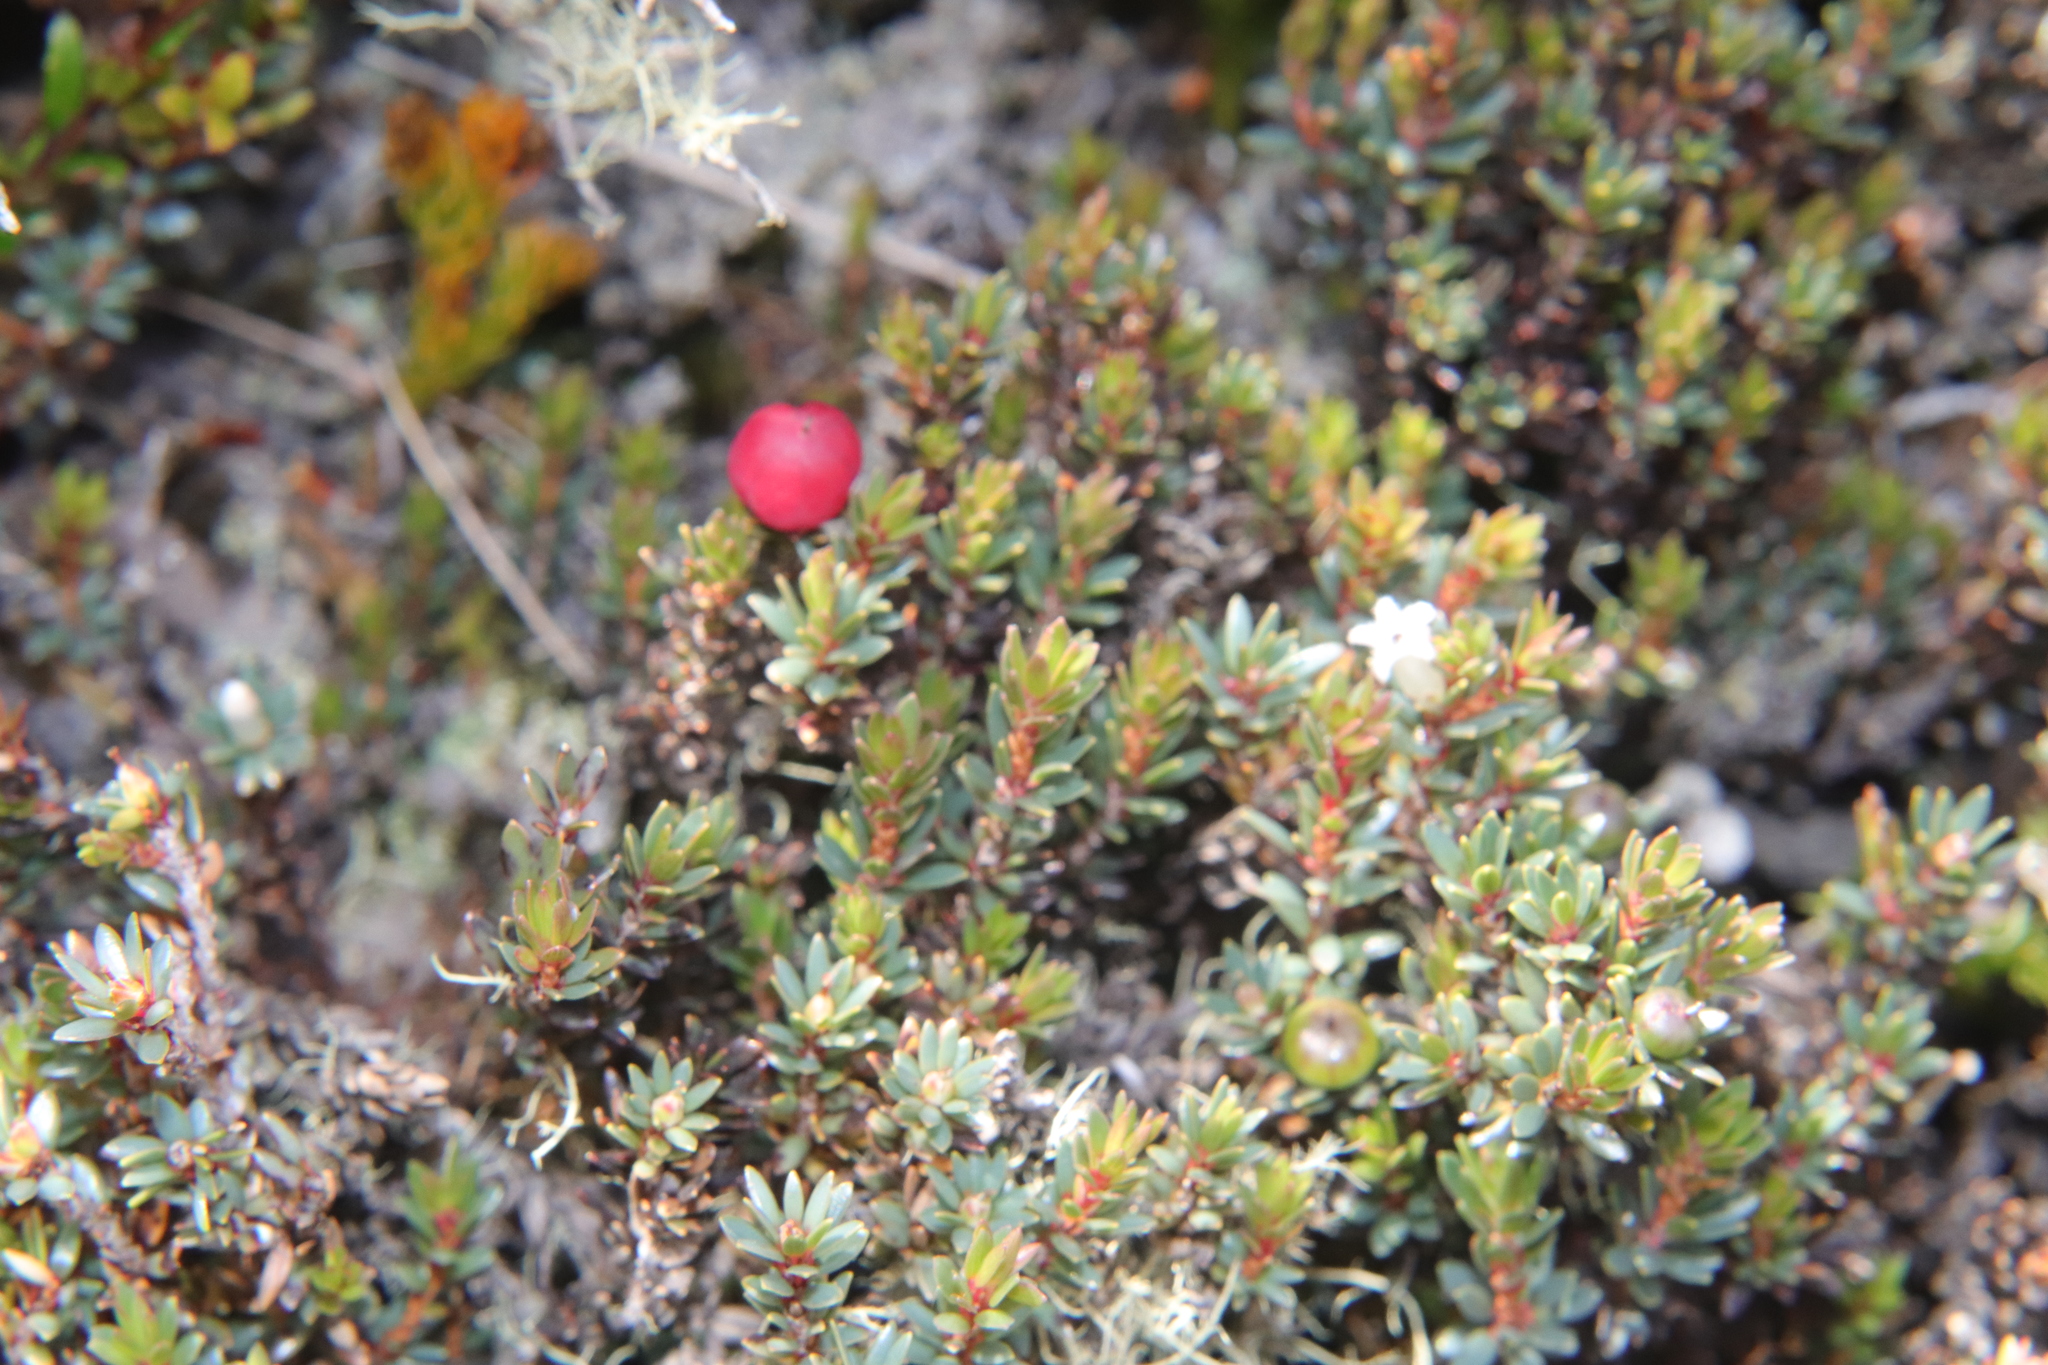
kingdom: Plantae
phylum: Tracheophyta
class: Magnoliopsida
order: Ericales
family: Ericaceae
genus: Pentachondra
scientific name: Pentachondra pumila
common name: Carpet-heath
